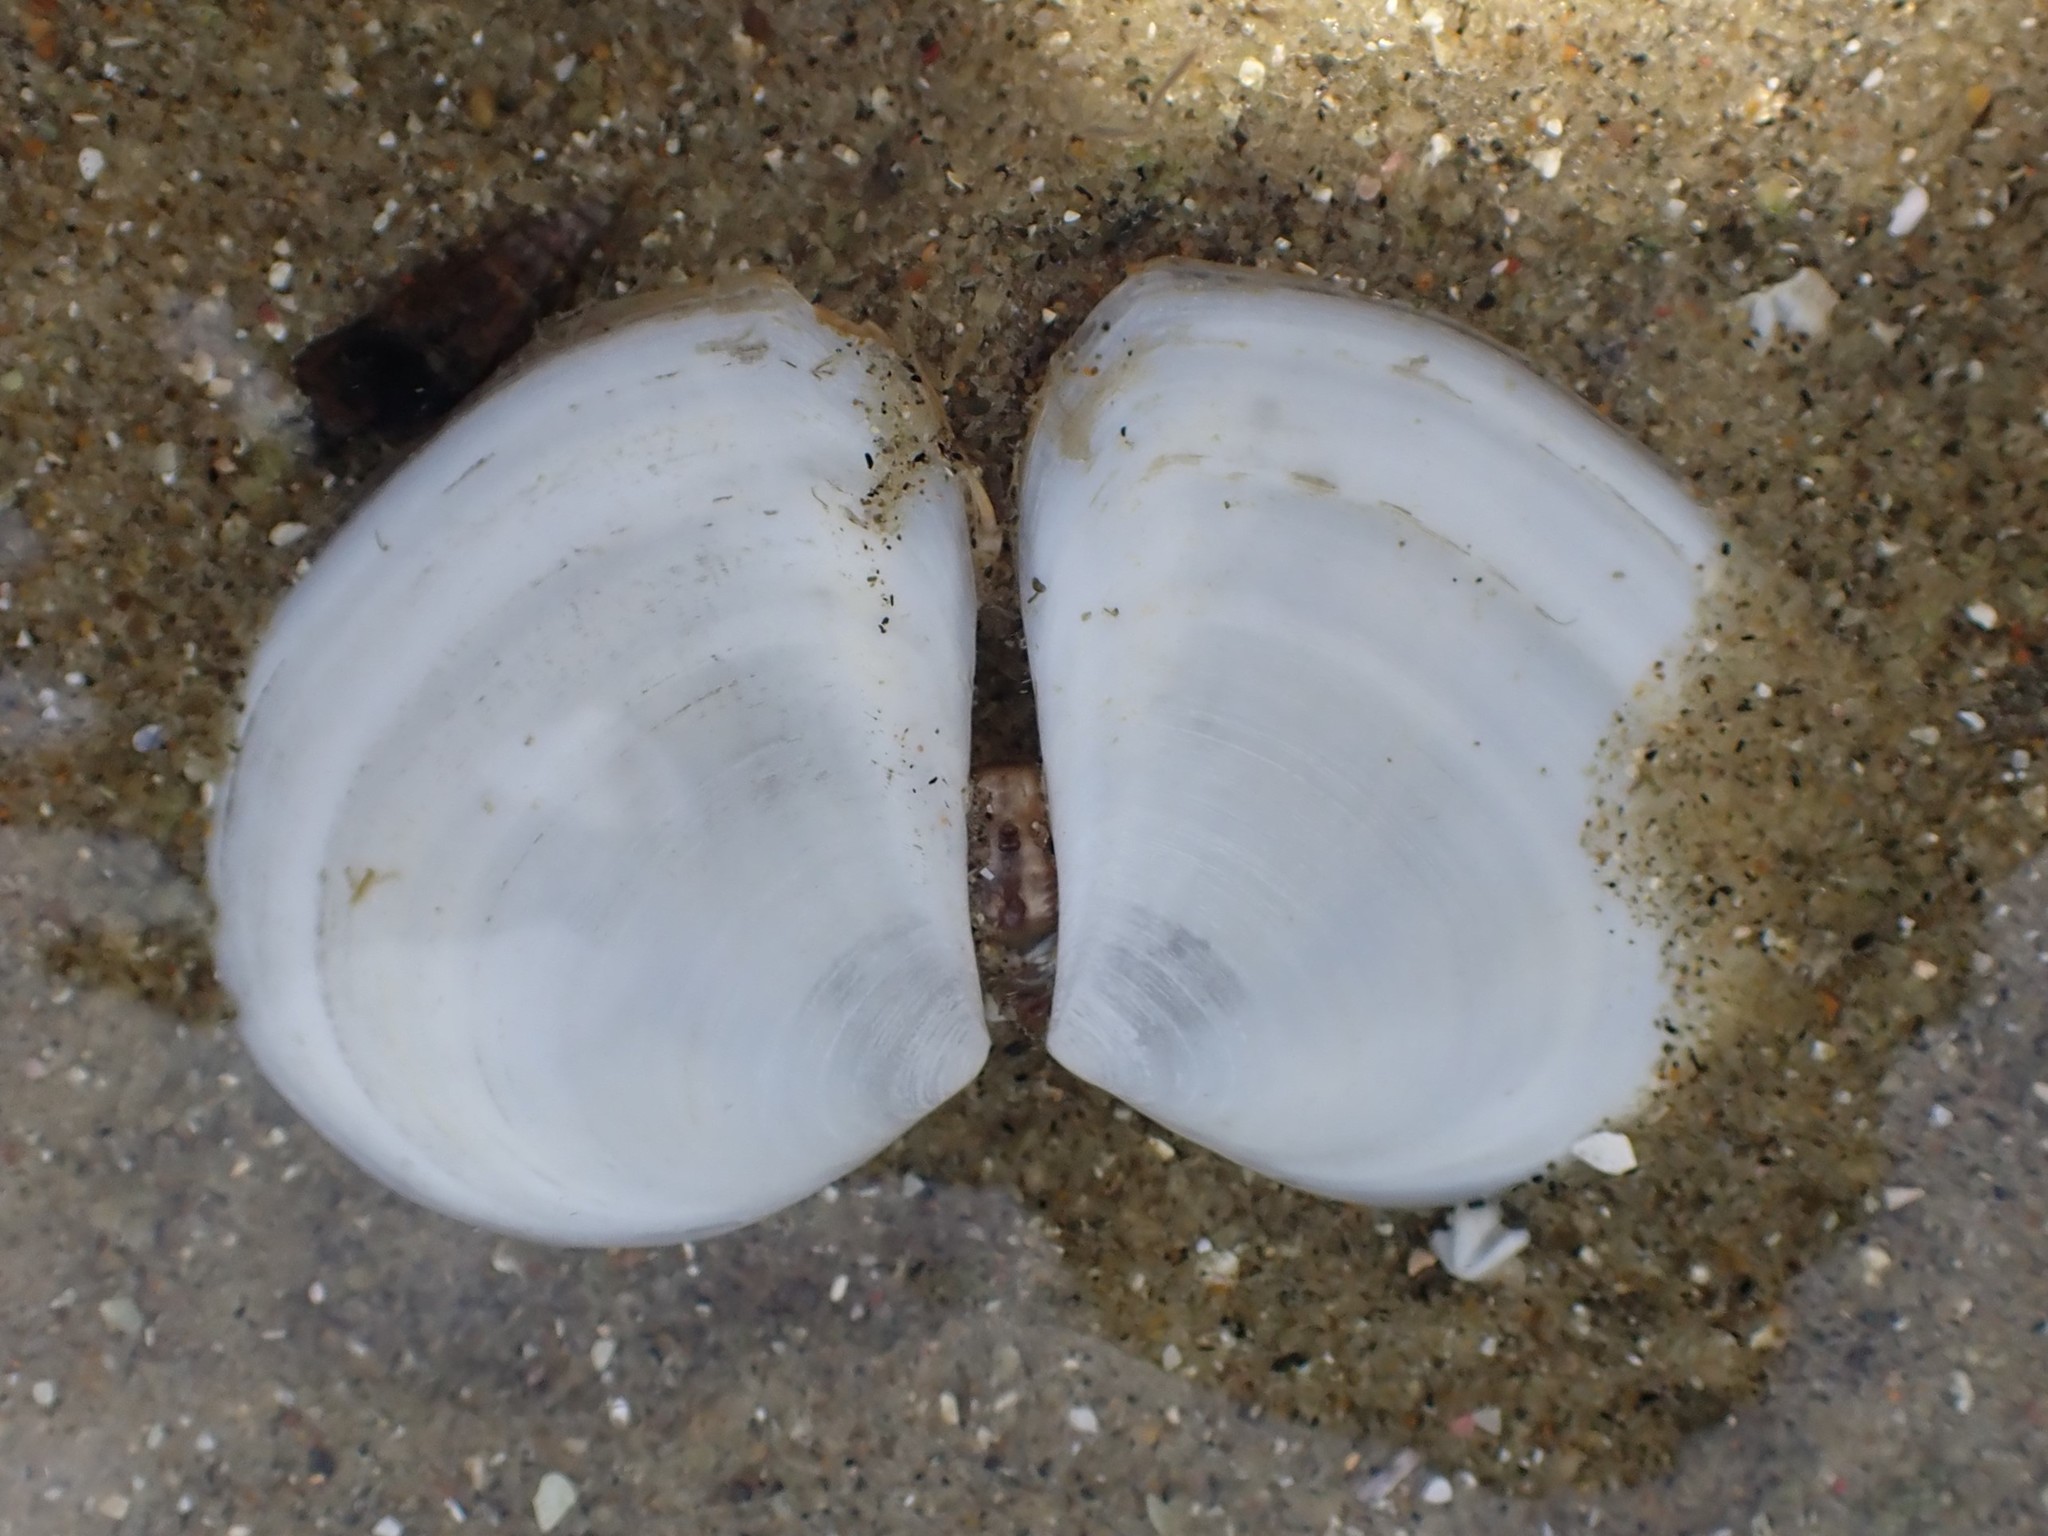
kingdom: Animalia
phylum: Mollusca
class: Bivalvia
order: Cardiida
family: Tellinidae
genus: Macomona
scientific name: Macomona liliana
